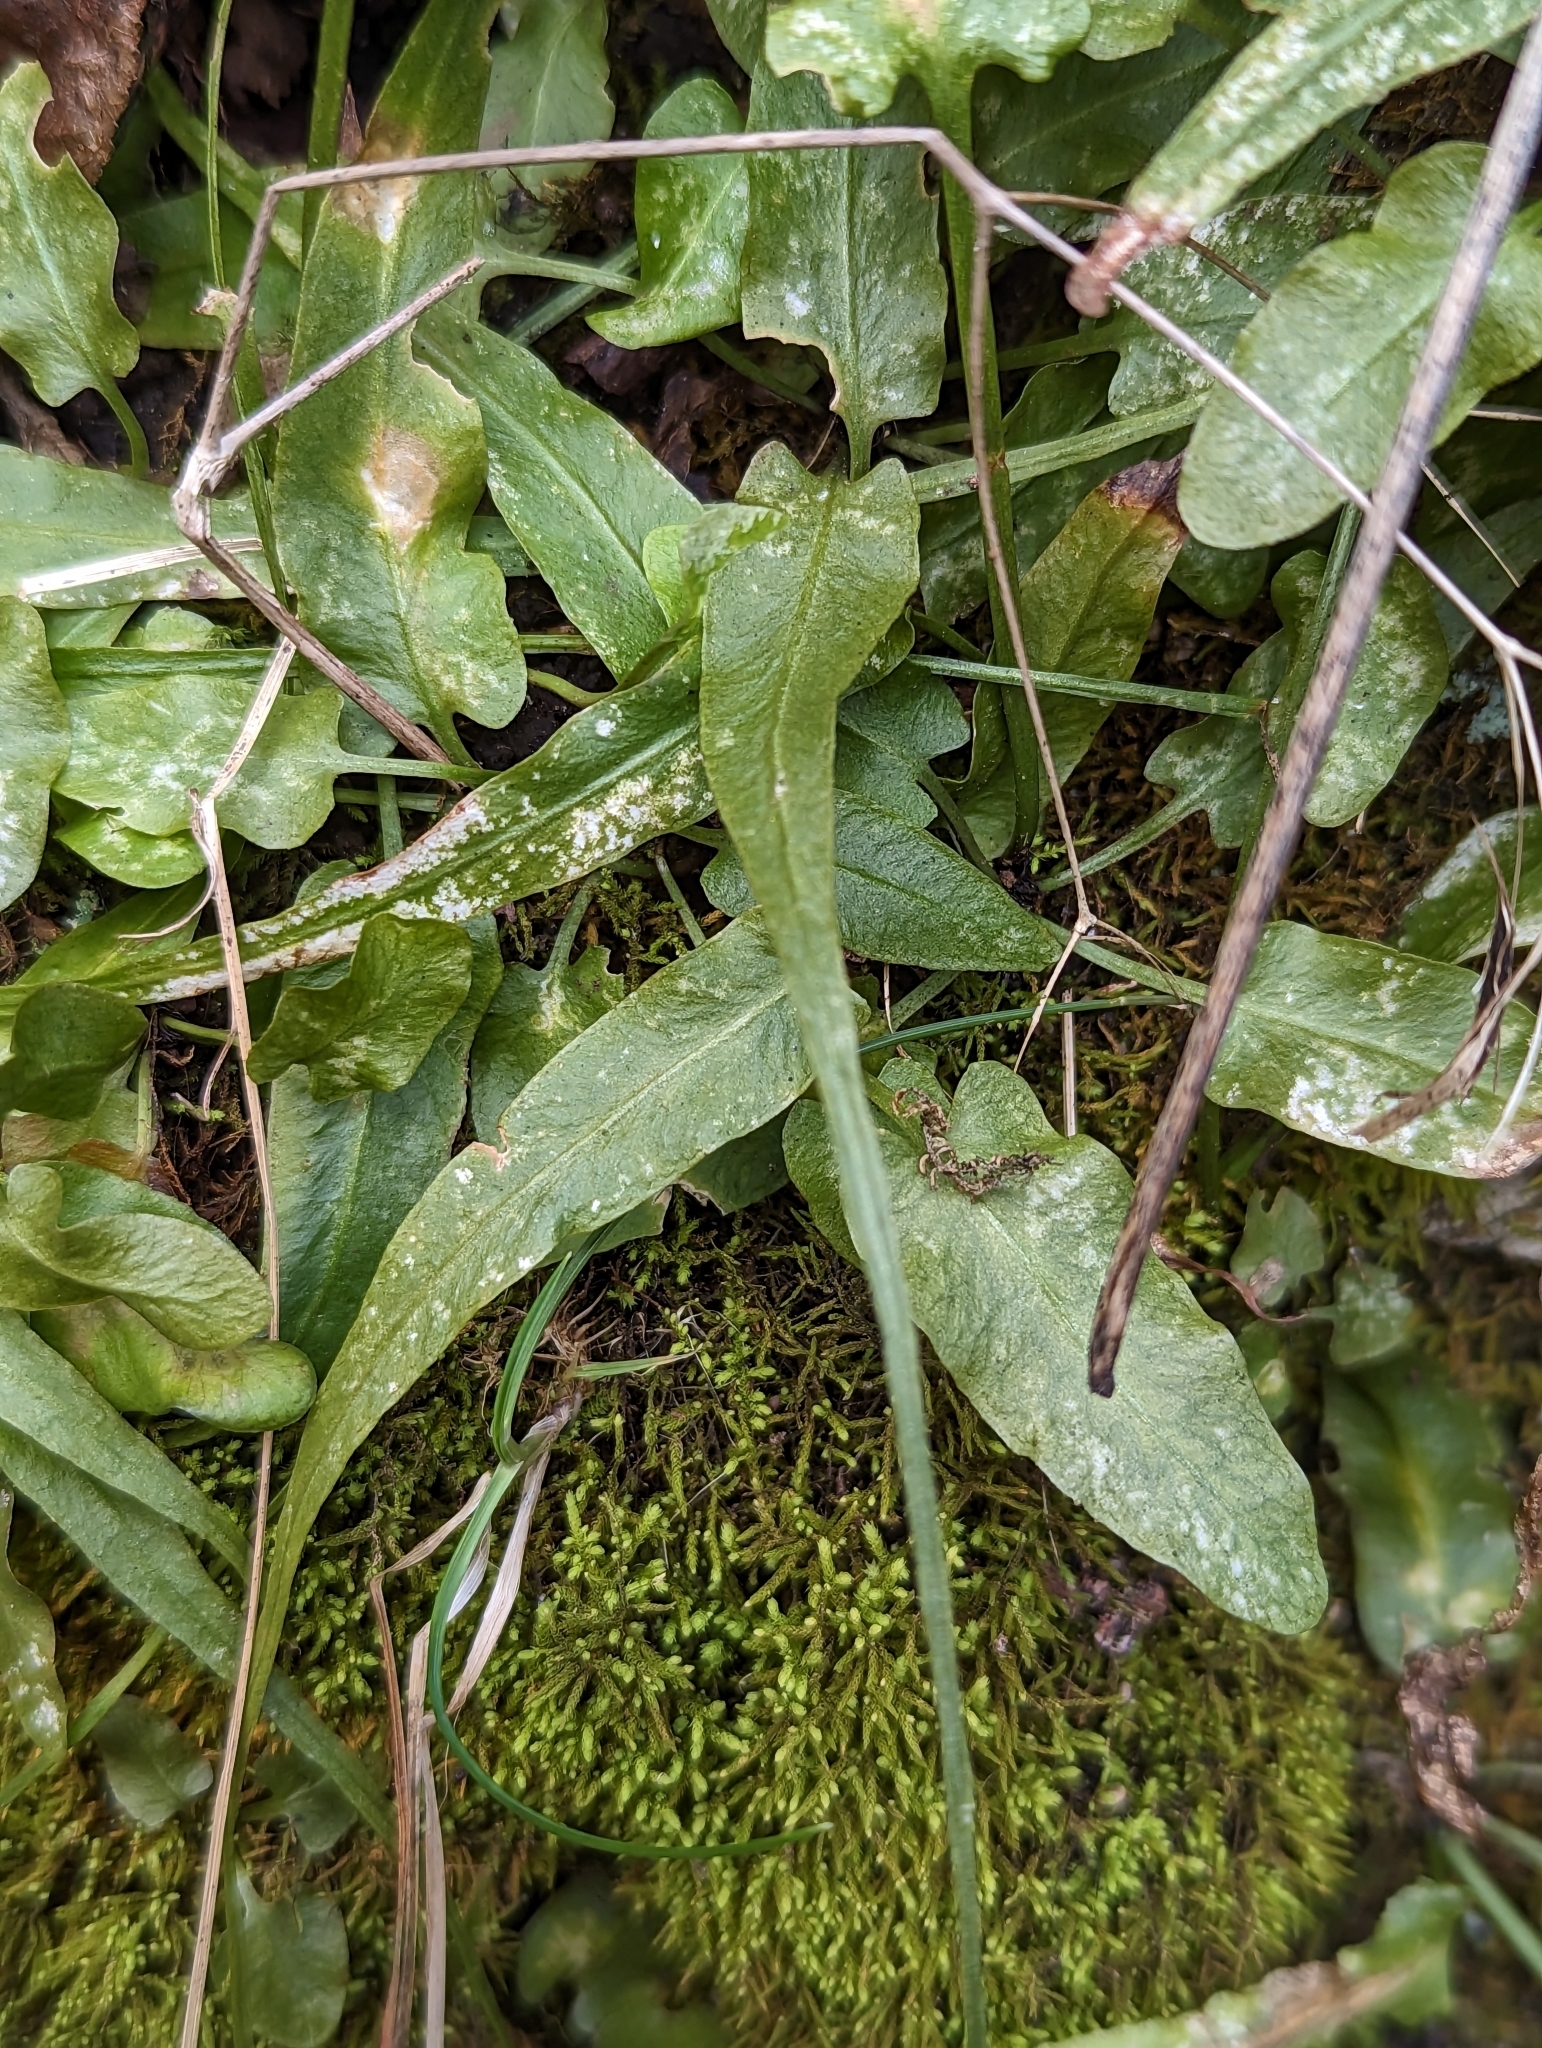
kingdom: Plantae
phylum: Tracheophyta
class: Polypodiopsida
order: Polypodiales
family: Aspleniaceae
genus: Asplenium
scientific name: Asplenium rhizophyllum
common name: Walking fern
